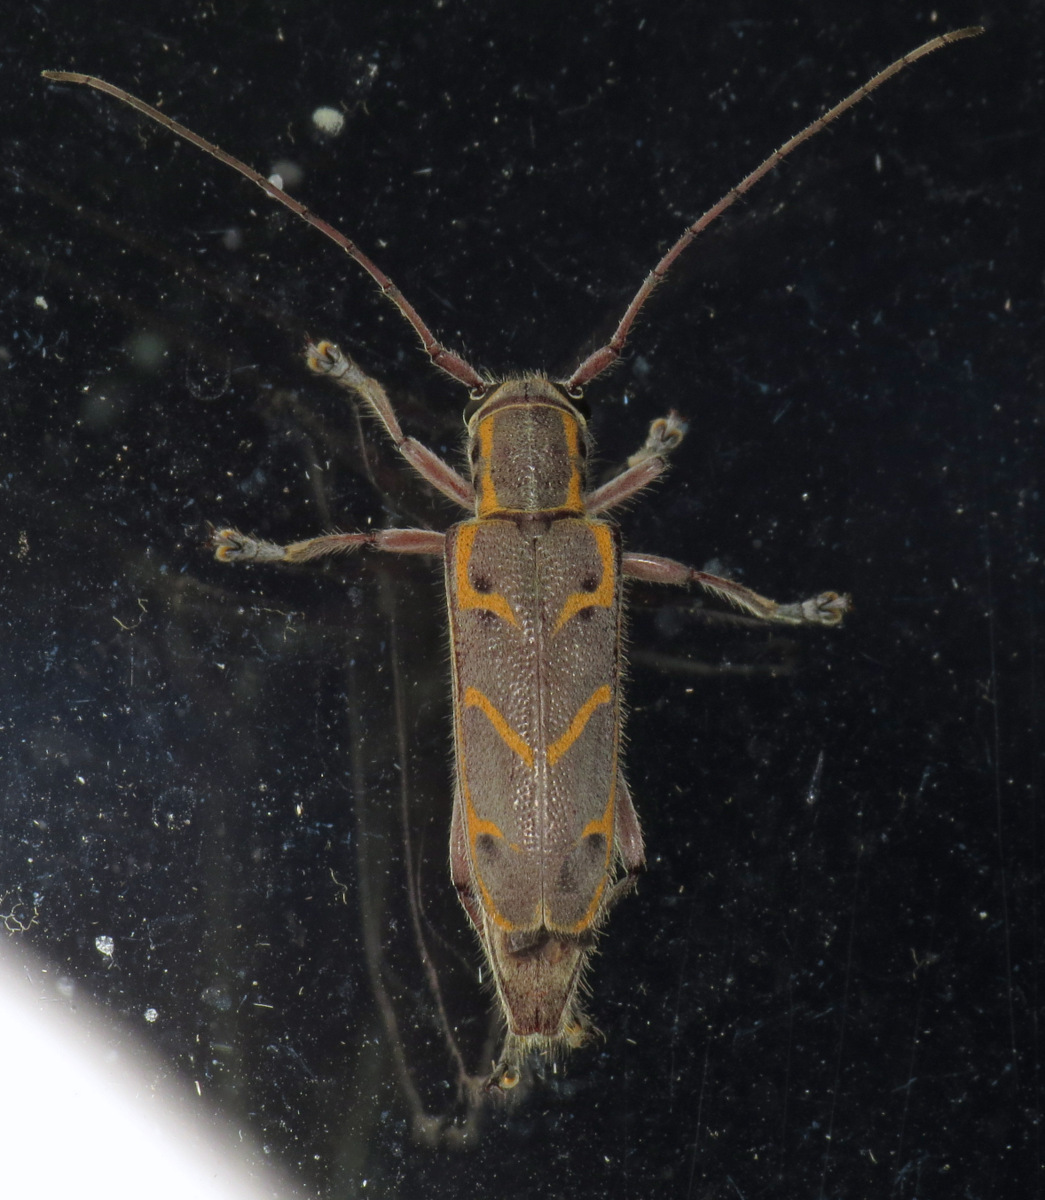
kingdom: Animalia
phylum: Arthropoda
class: Insecta
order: Coleoptera
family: Cerambycidae
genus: Saperda
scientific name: Saperda tridentata
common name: Elm borer
